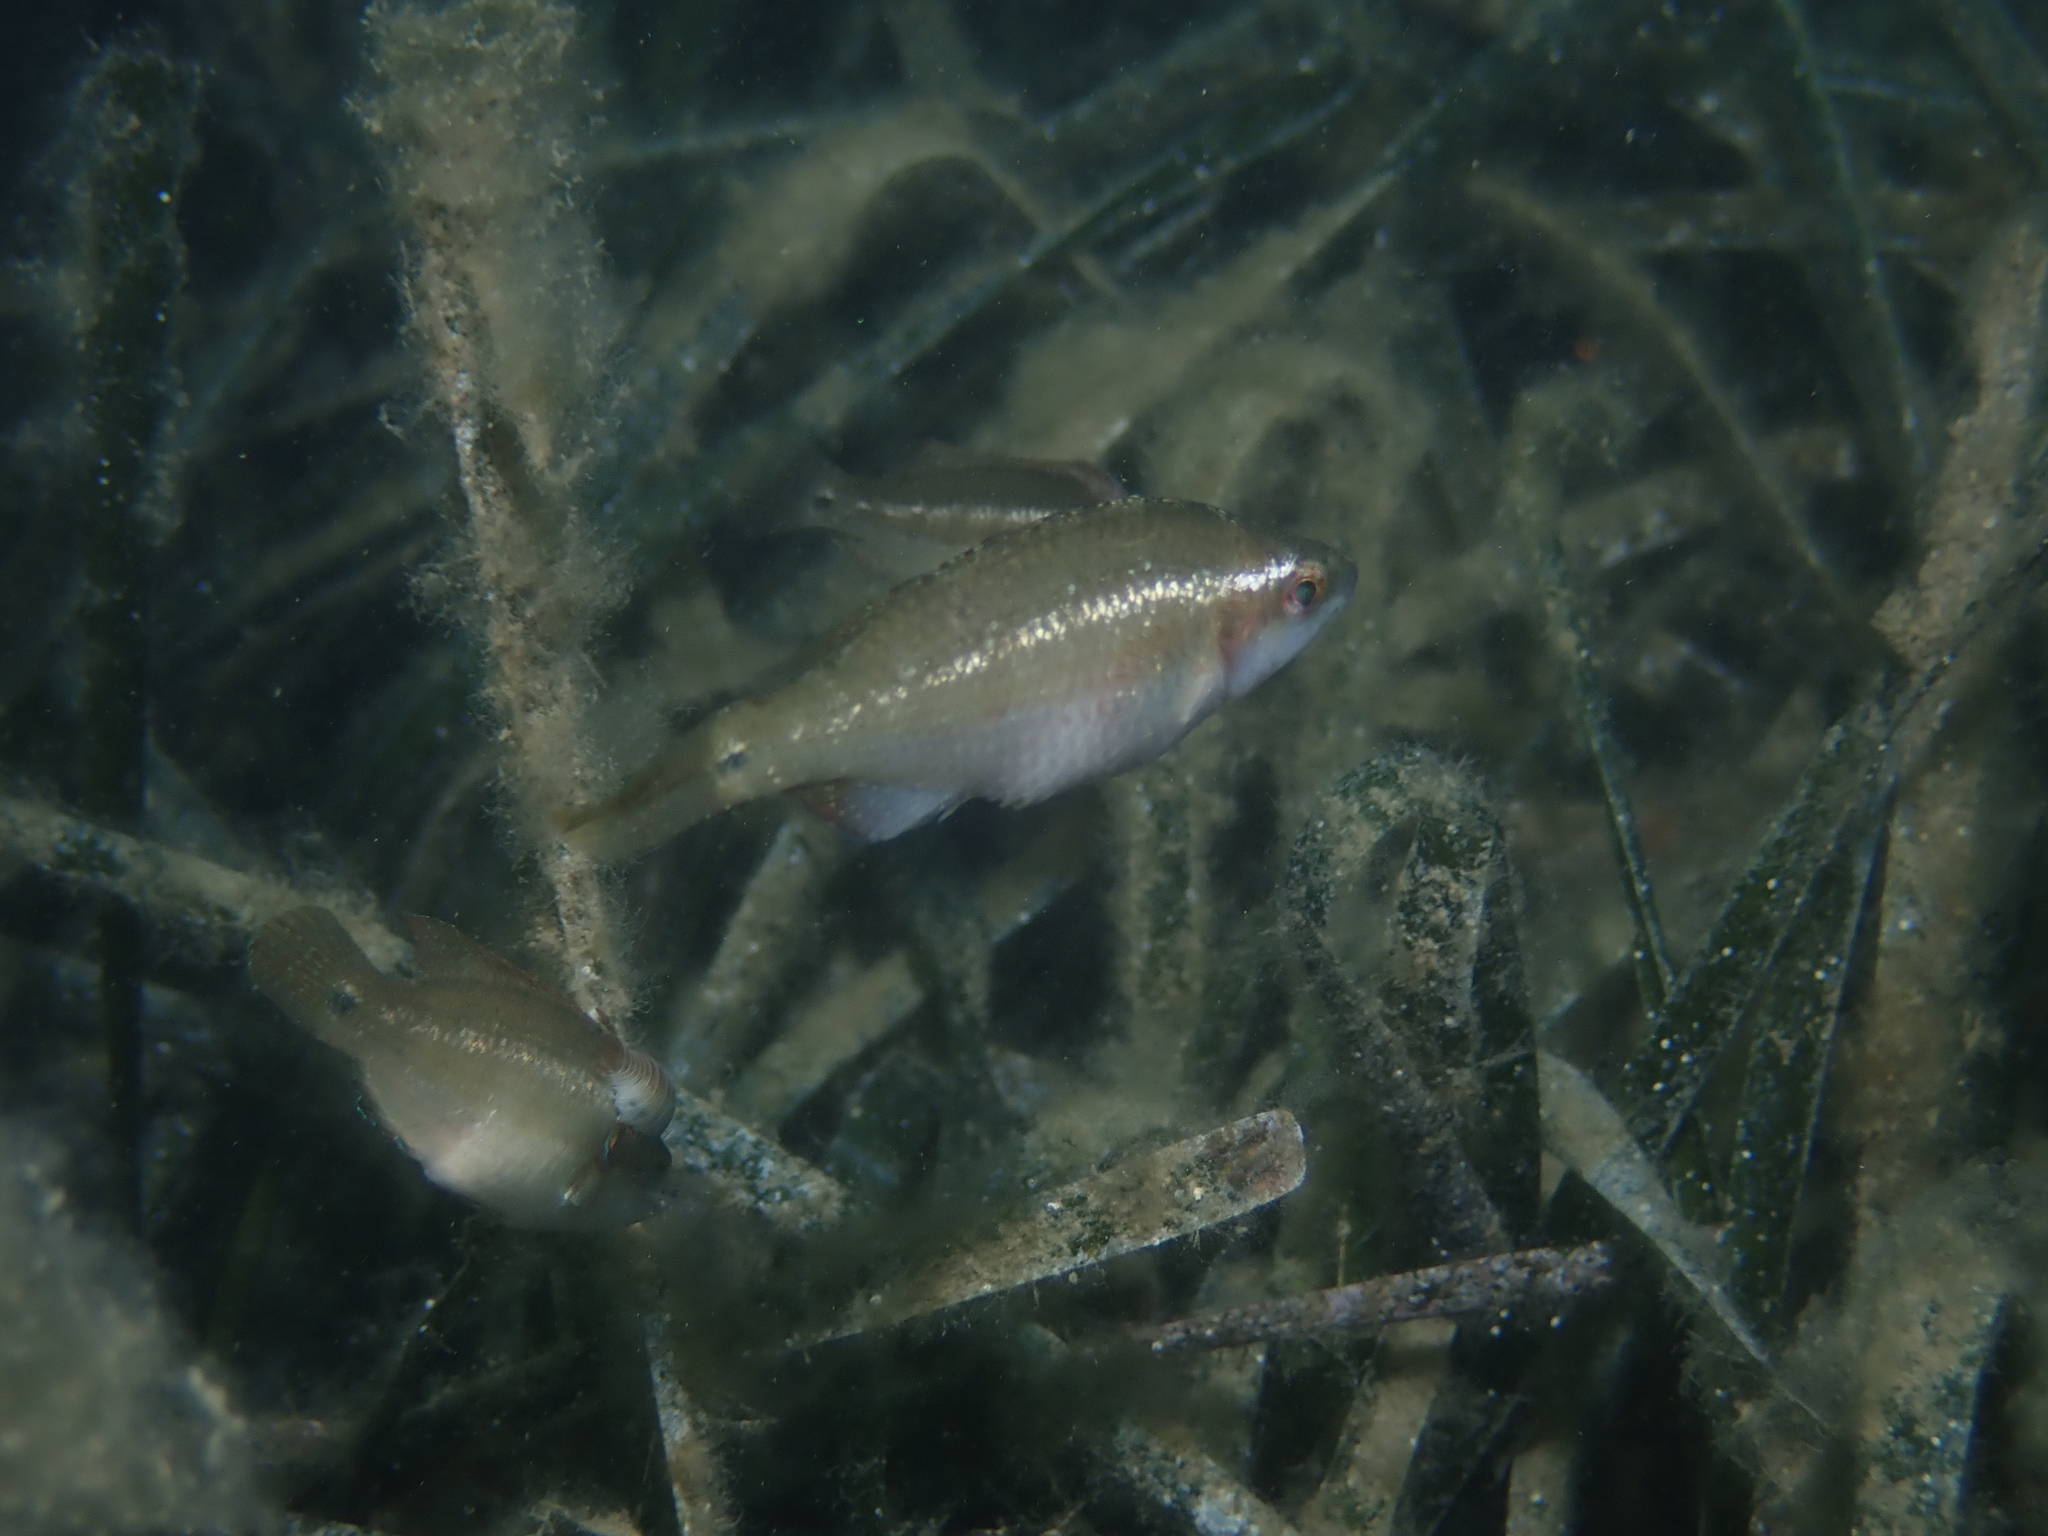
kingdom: Animalia
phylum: Chordata
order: Perciformes
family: Labridae
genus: Symphodus
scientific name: Symphodus ocellatus
